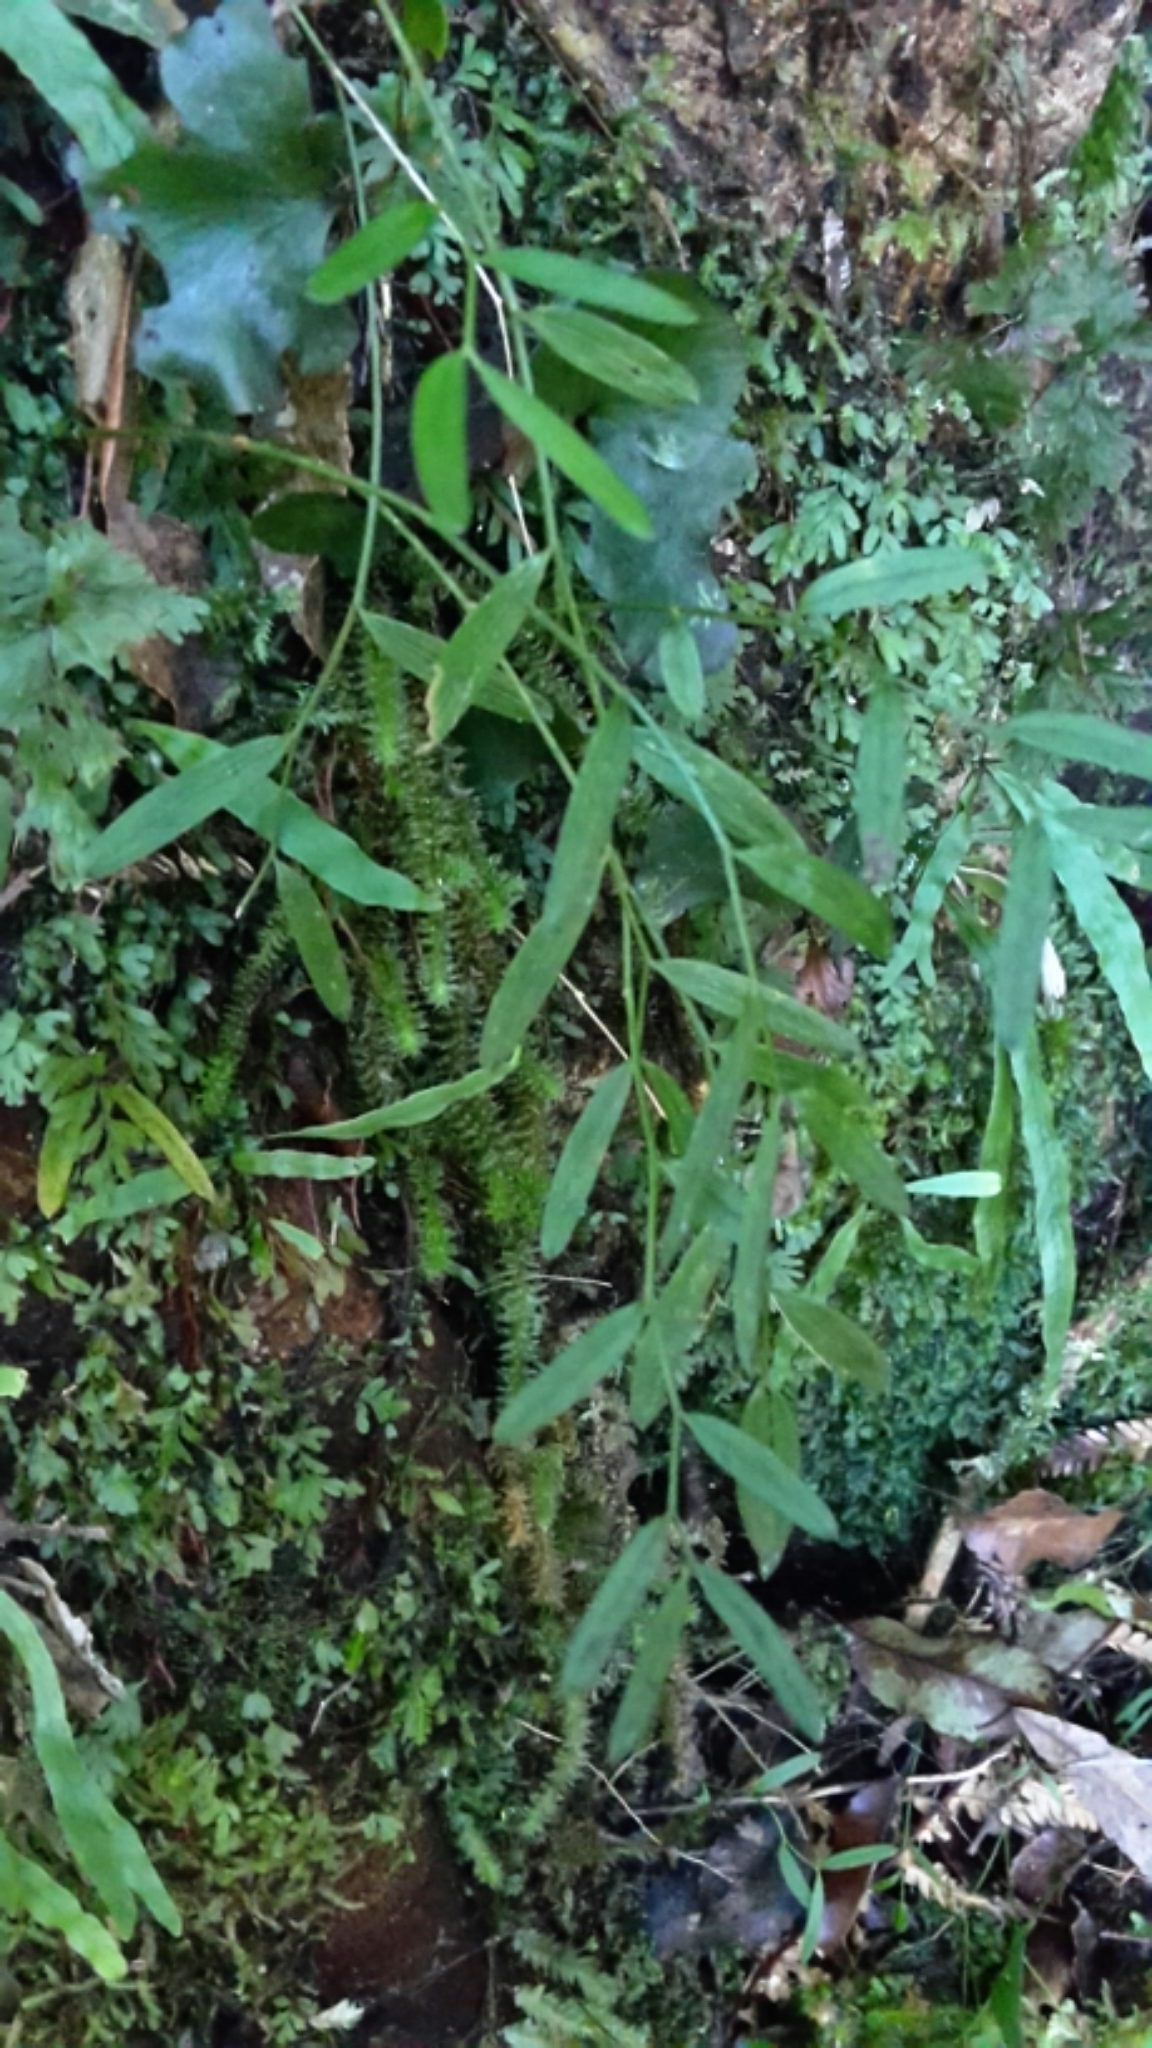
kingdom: Plantae
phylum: Tracheophyta
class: Liliopsida
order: Liliales
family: Alstroemeriaceae
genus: Luzuriaga
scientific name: Luzuriaga parviflora
